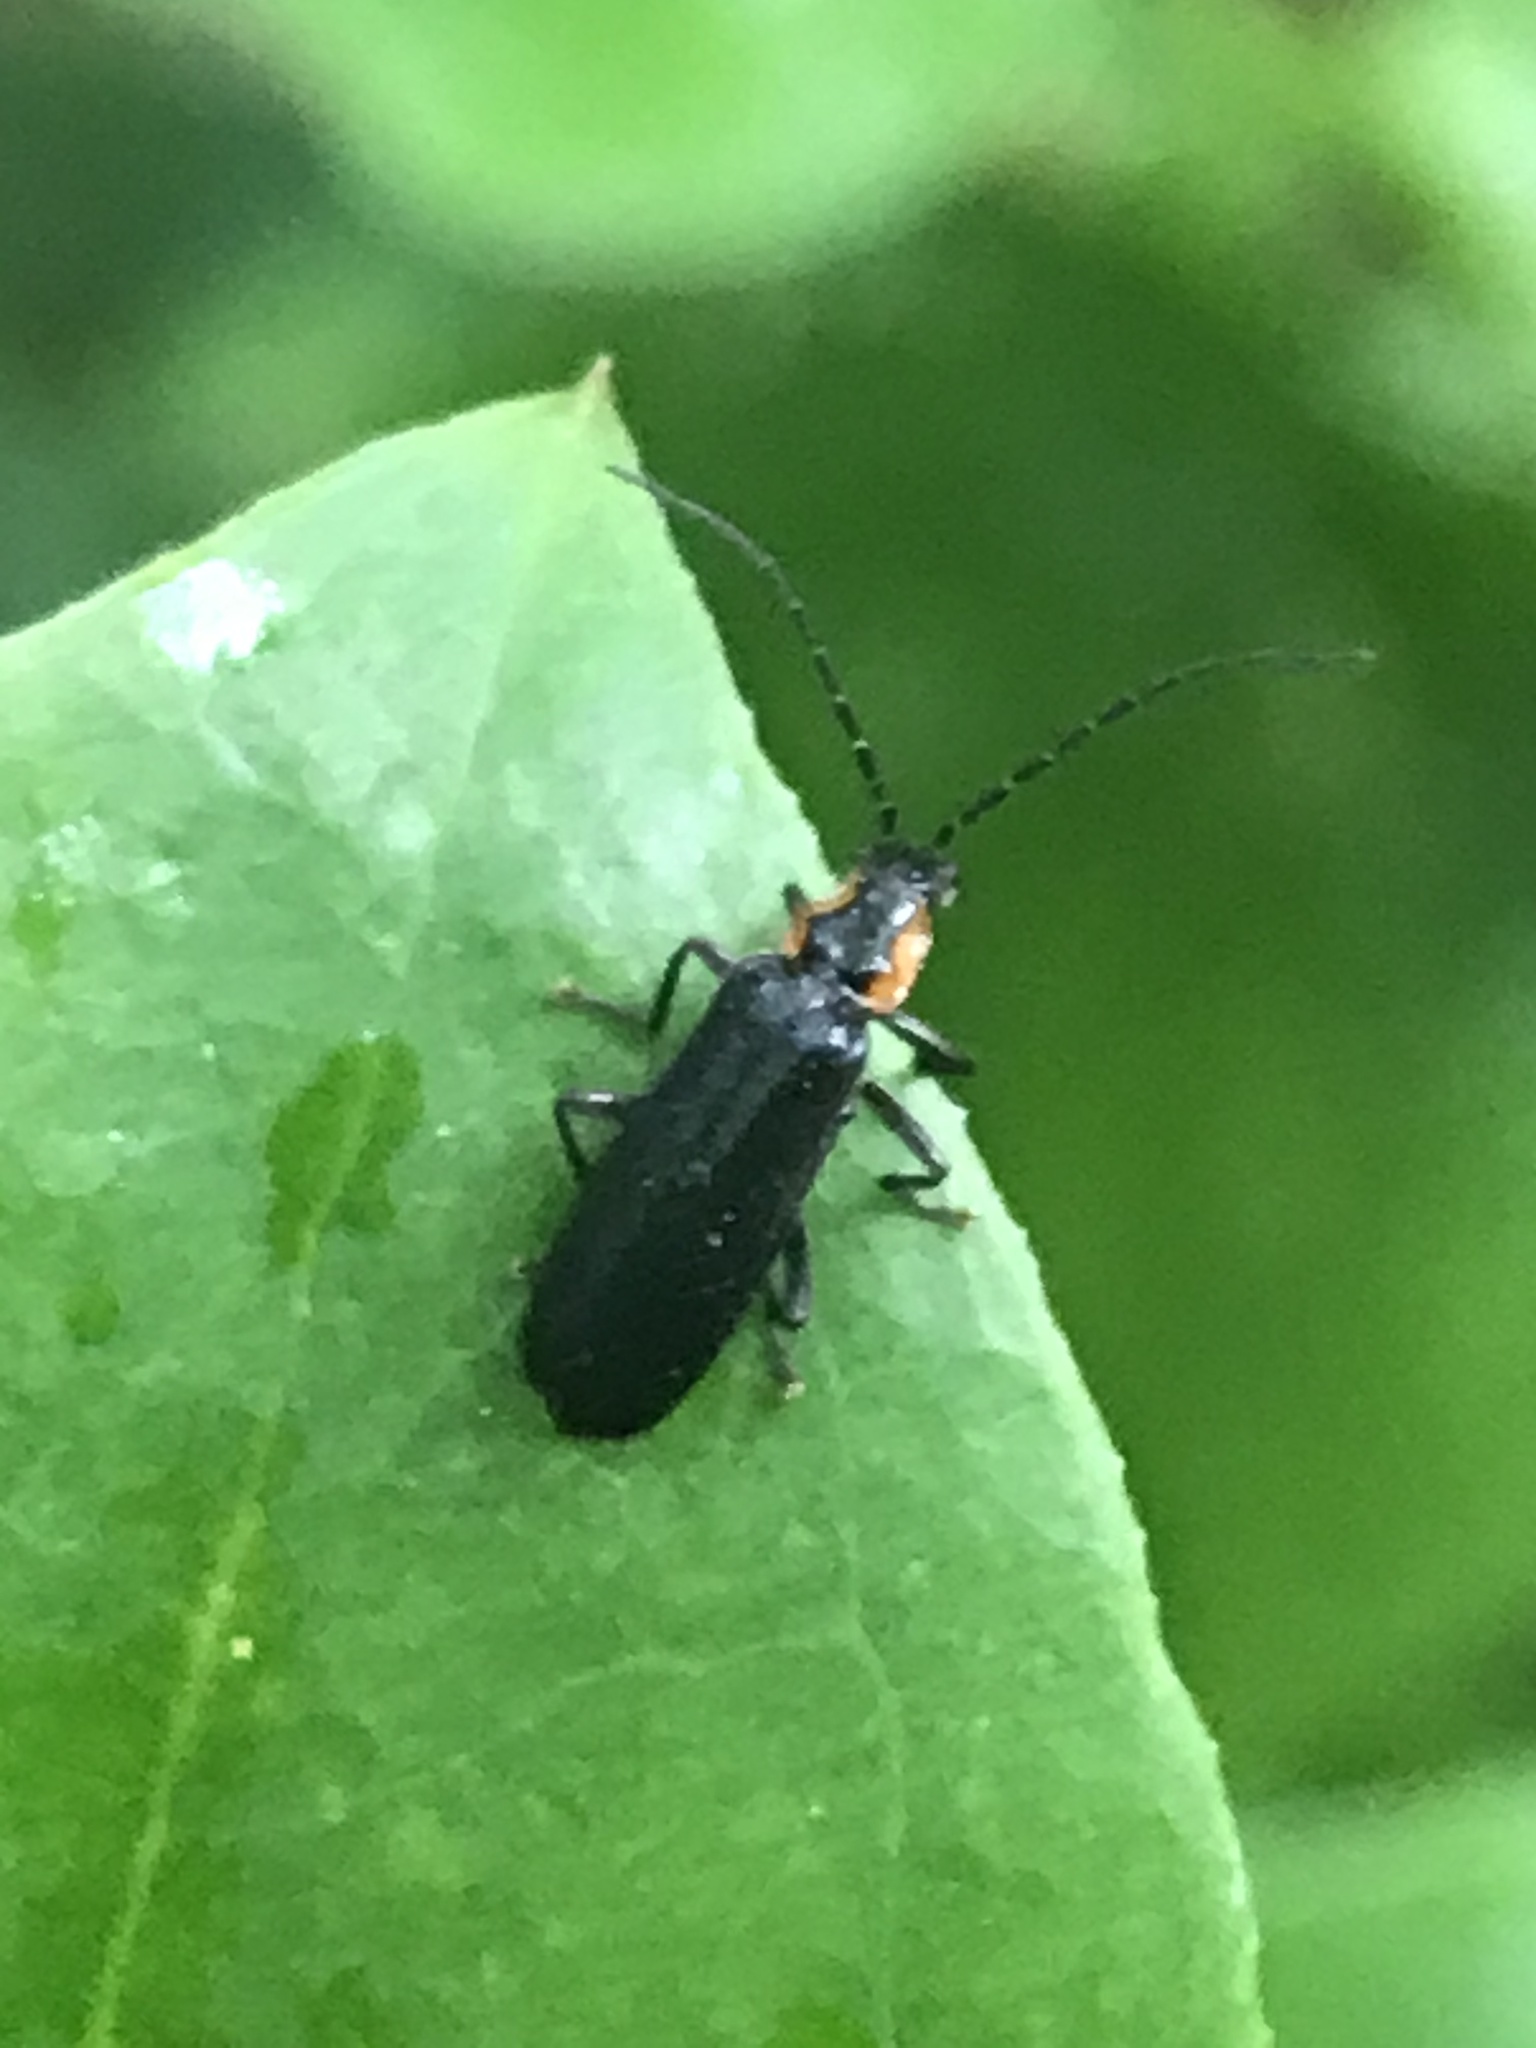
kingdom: Animalia
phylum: Arthropoda
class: Insecta
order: Coleoptera
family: Cantharidae
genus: Rhagonycha
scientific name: Rhagonycha angulata
